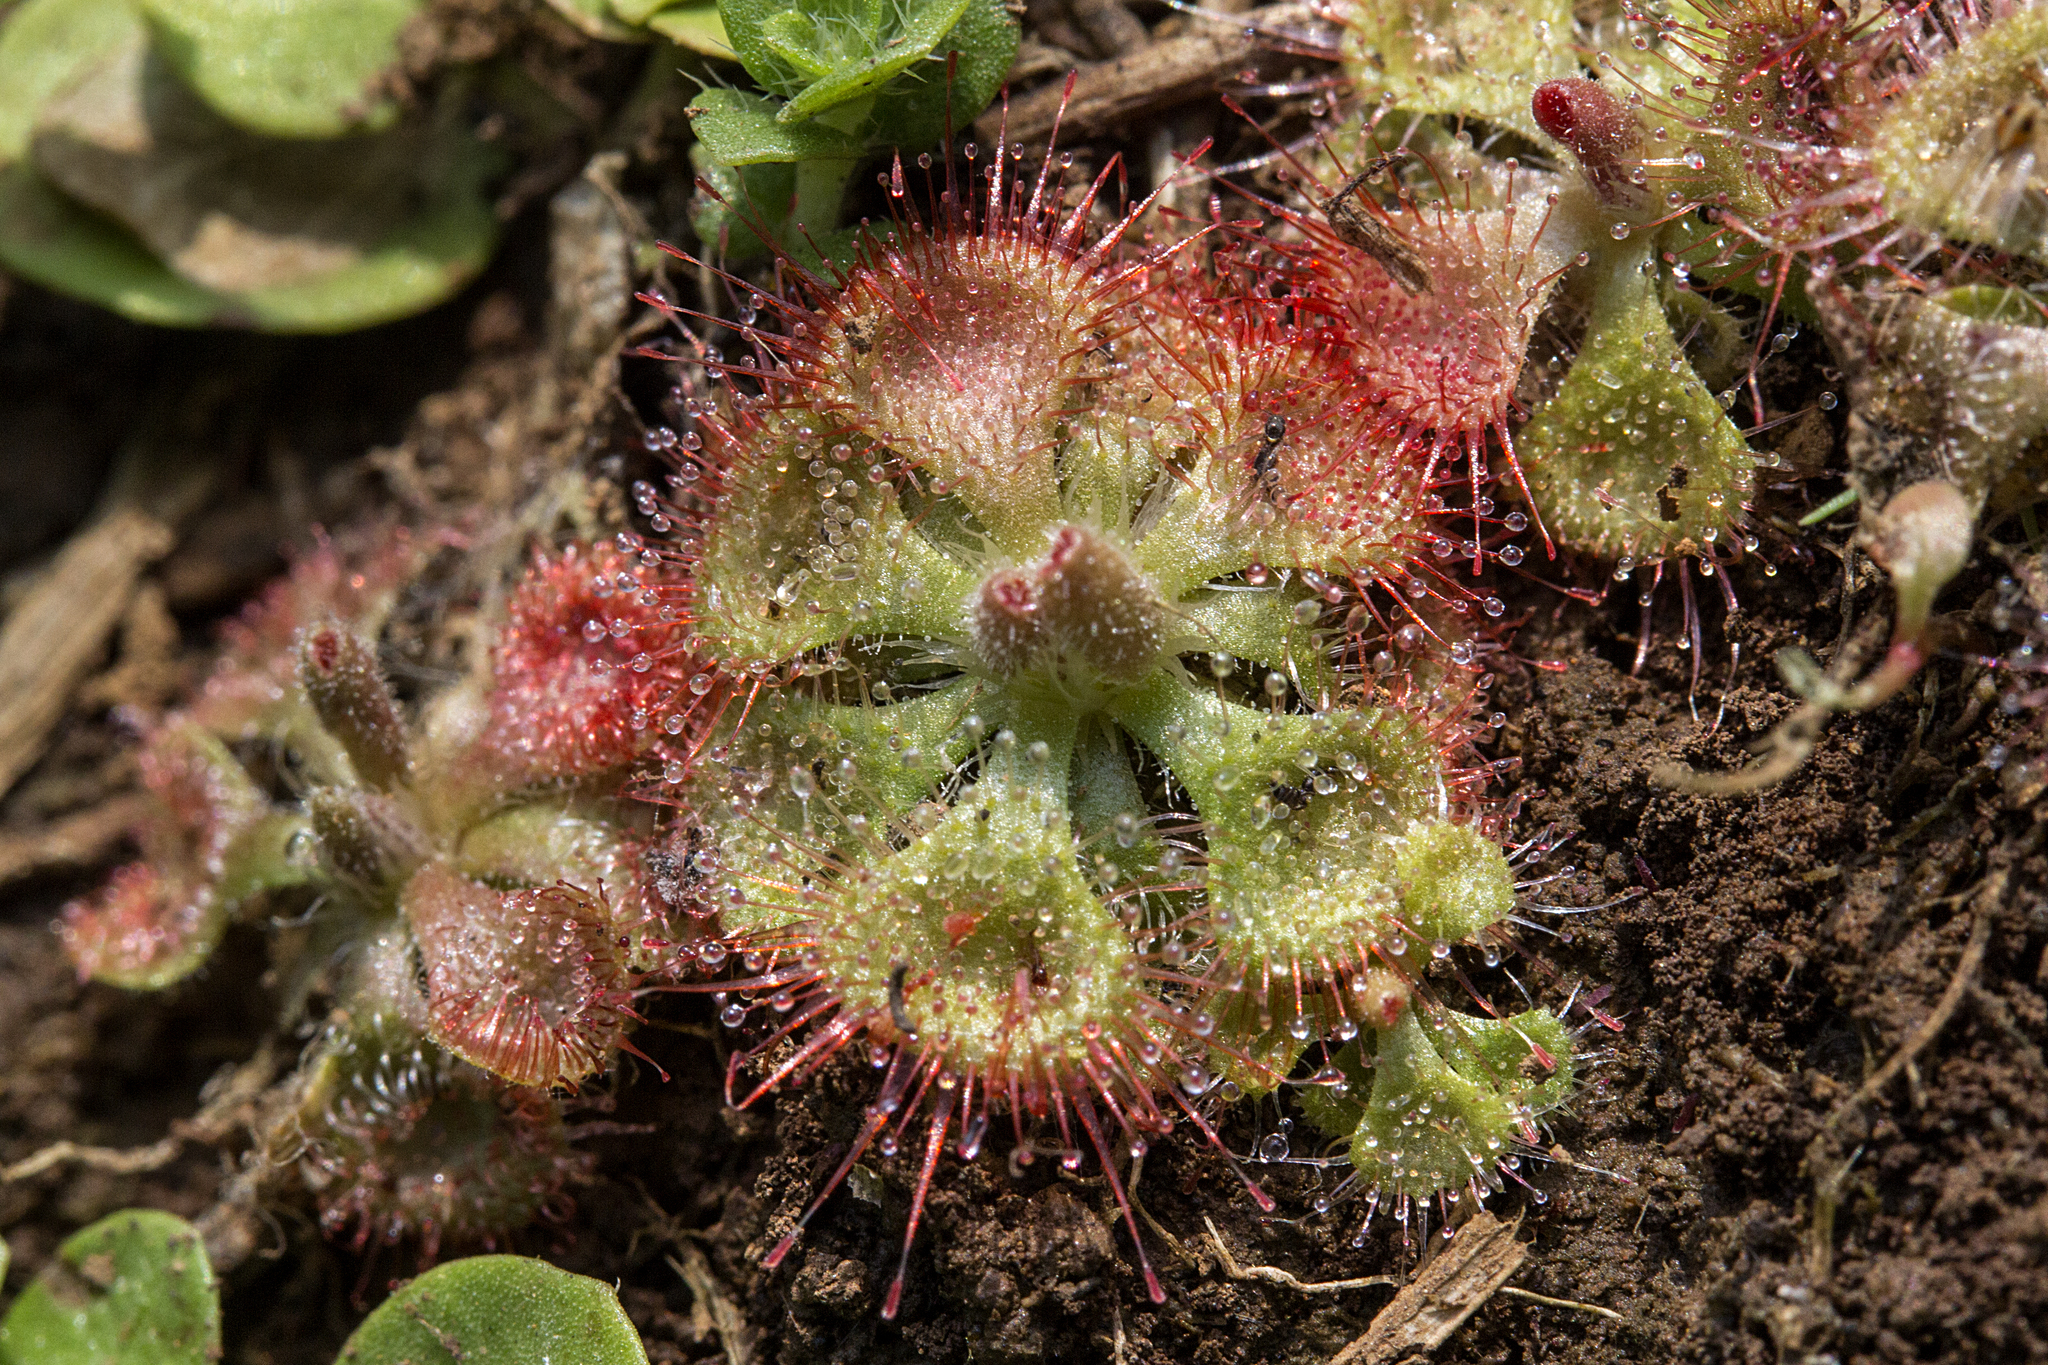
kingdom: Plantae
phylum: Tracheophyta
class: Magnoliopsida
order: Caryophyllales
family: Droseraceae
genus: Drosera
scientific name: Drosera spatulata
